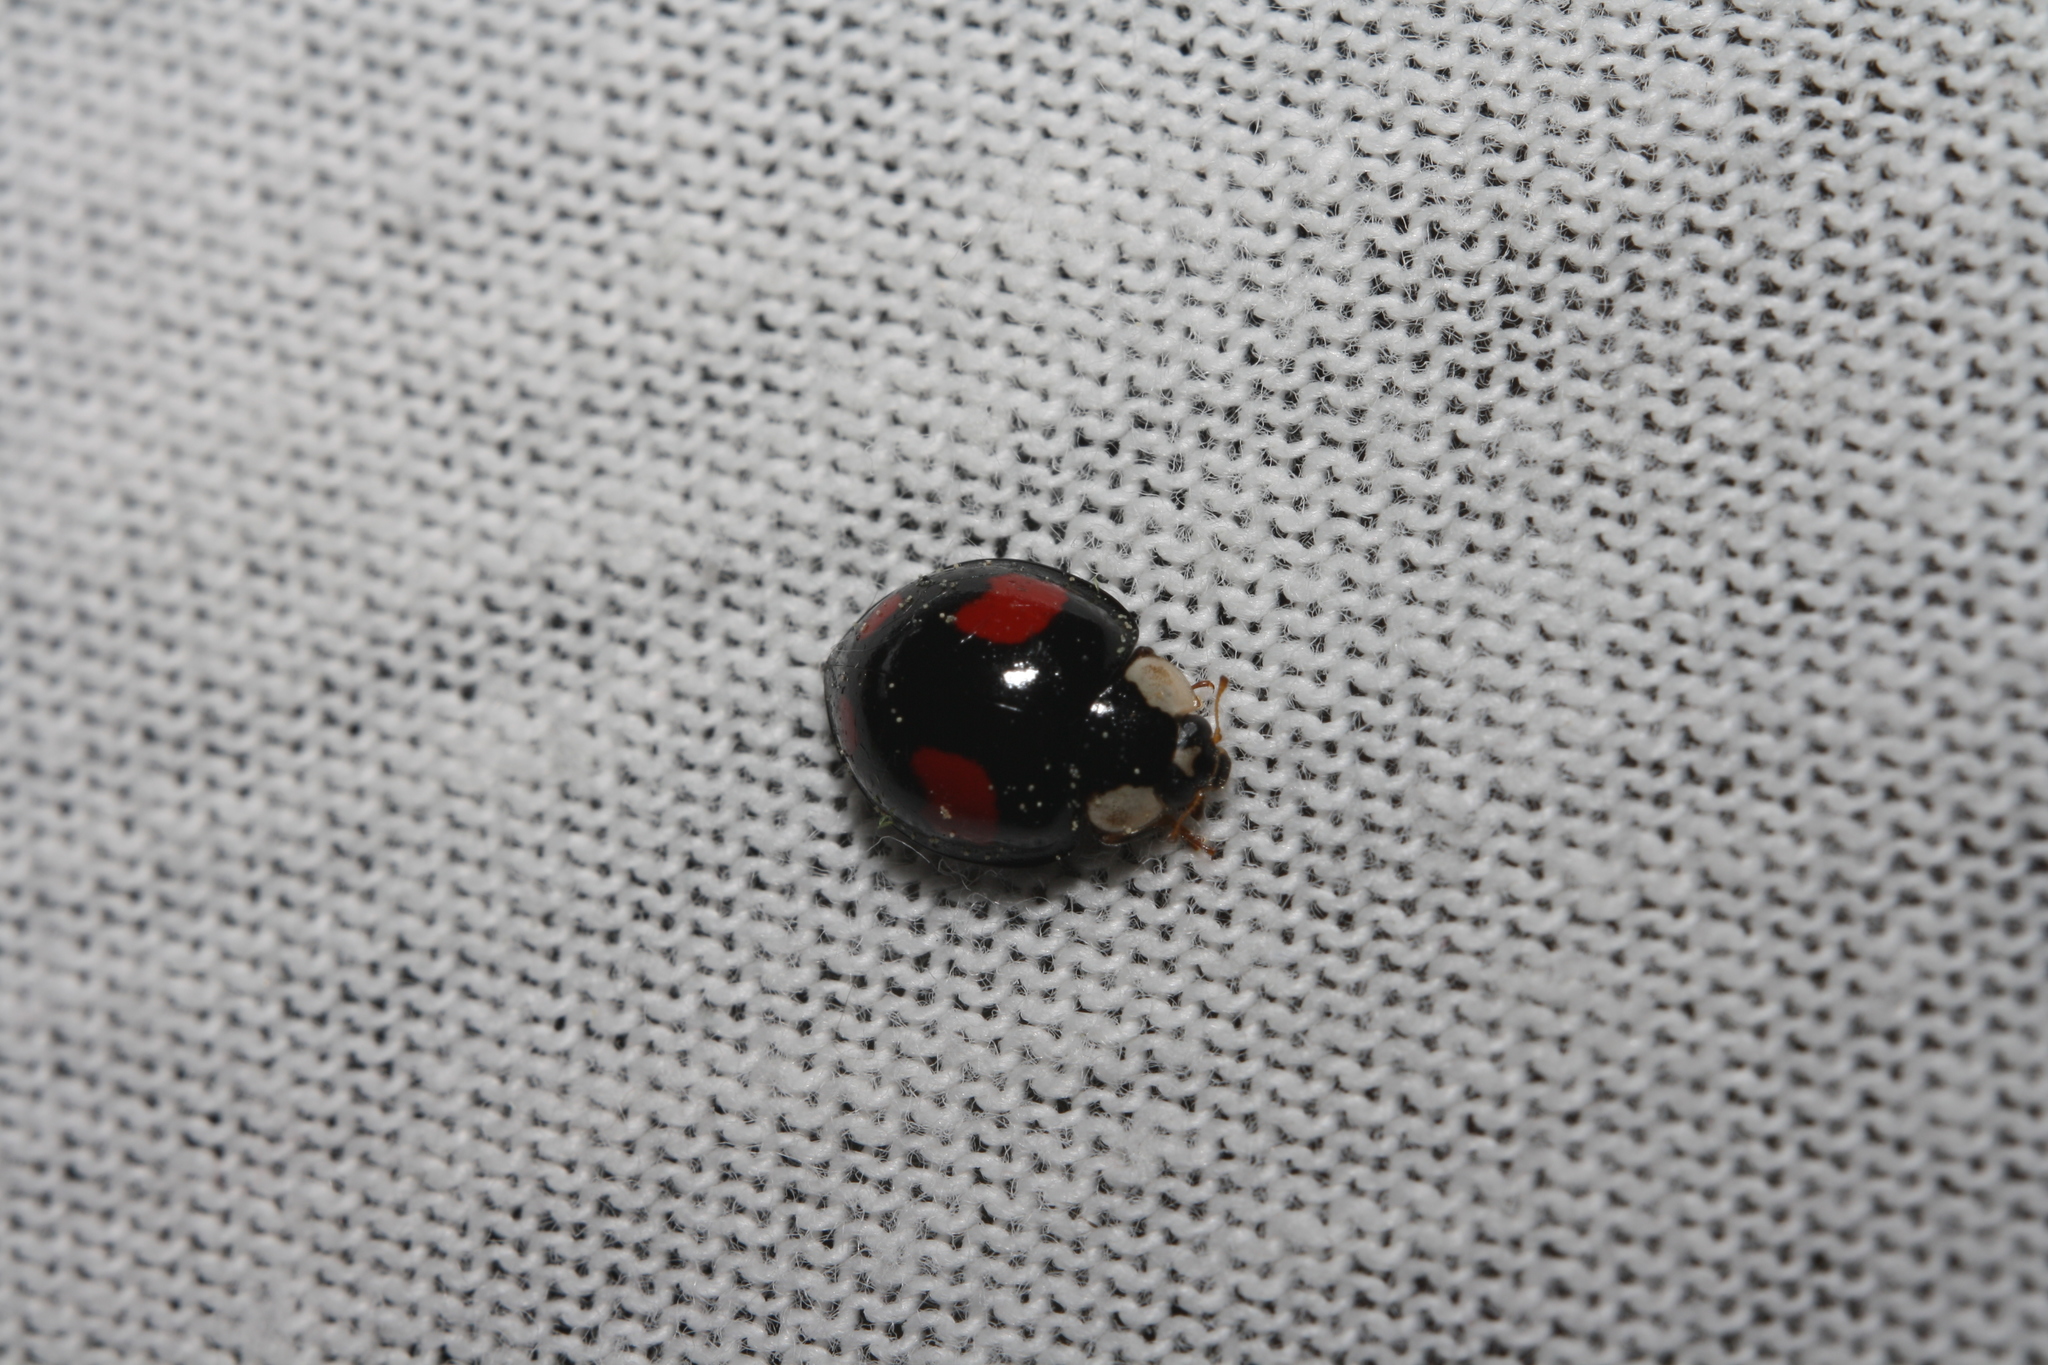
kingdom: Animalia
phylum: Arthropoda
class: Insecta
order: Coleoptera
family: Coccinellidae
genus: Harmonia
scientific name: Harmonia axyridis
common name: Harlequin ladybird
